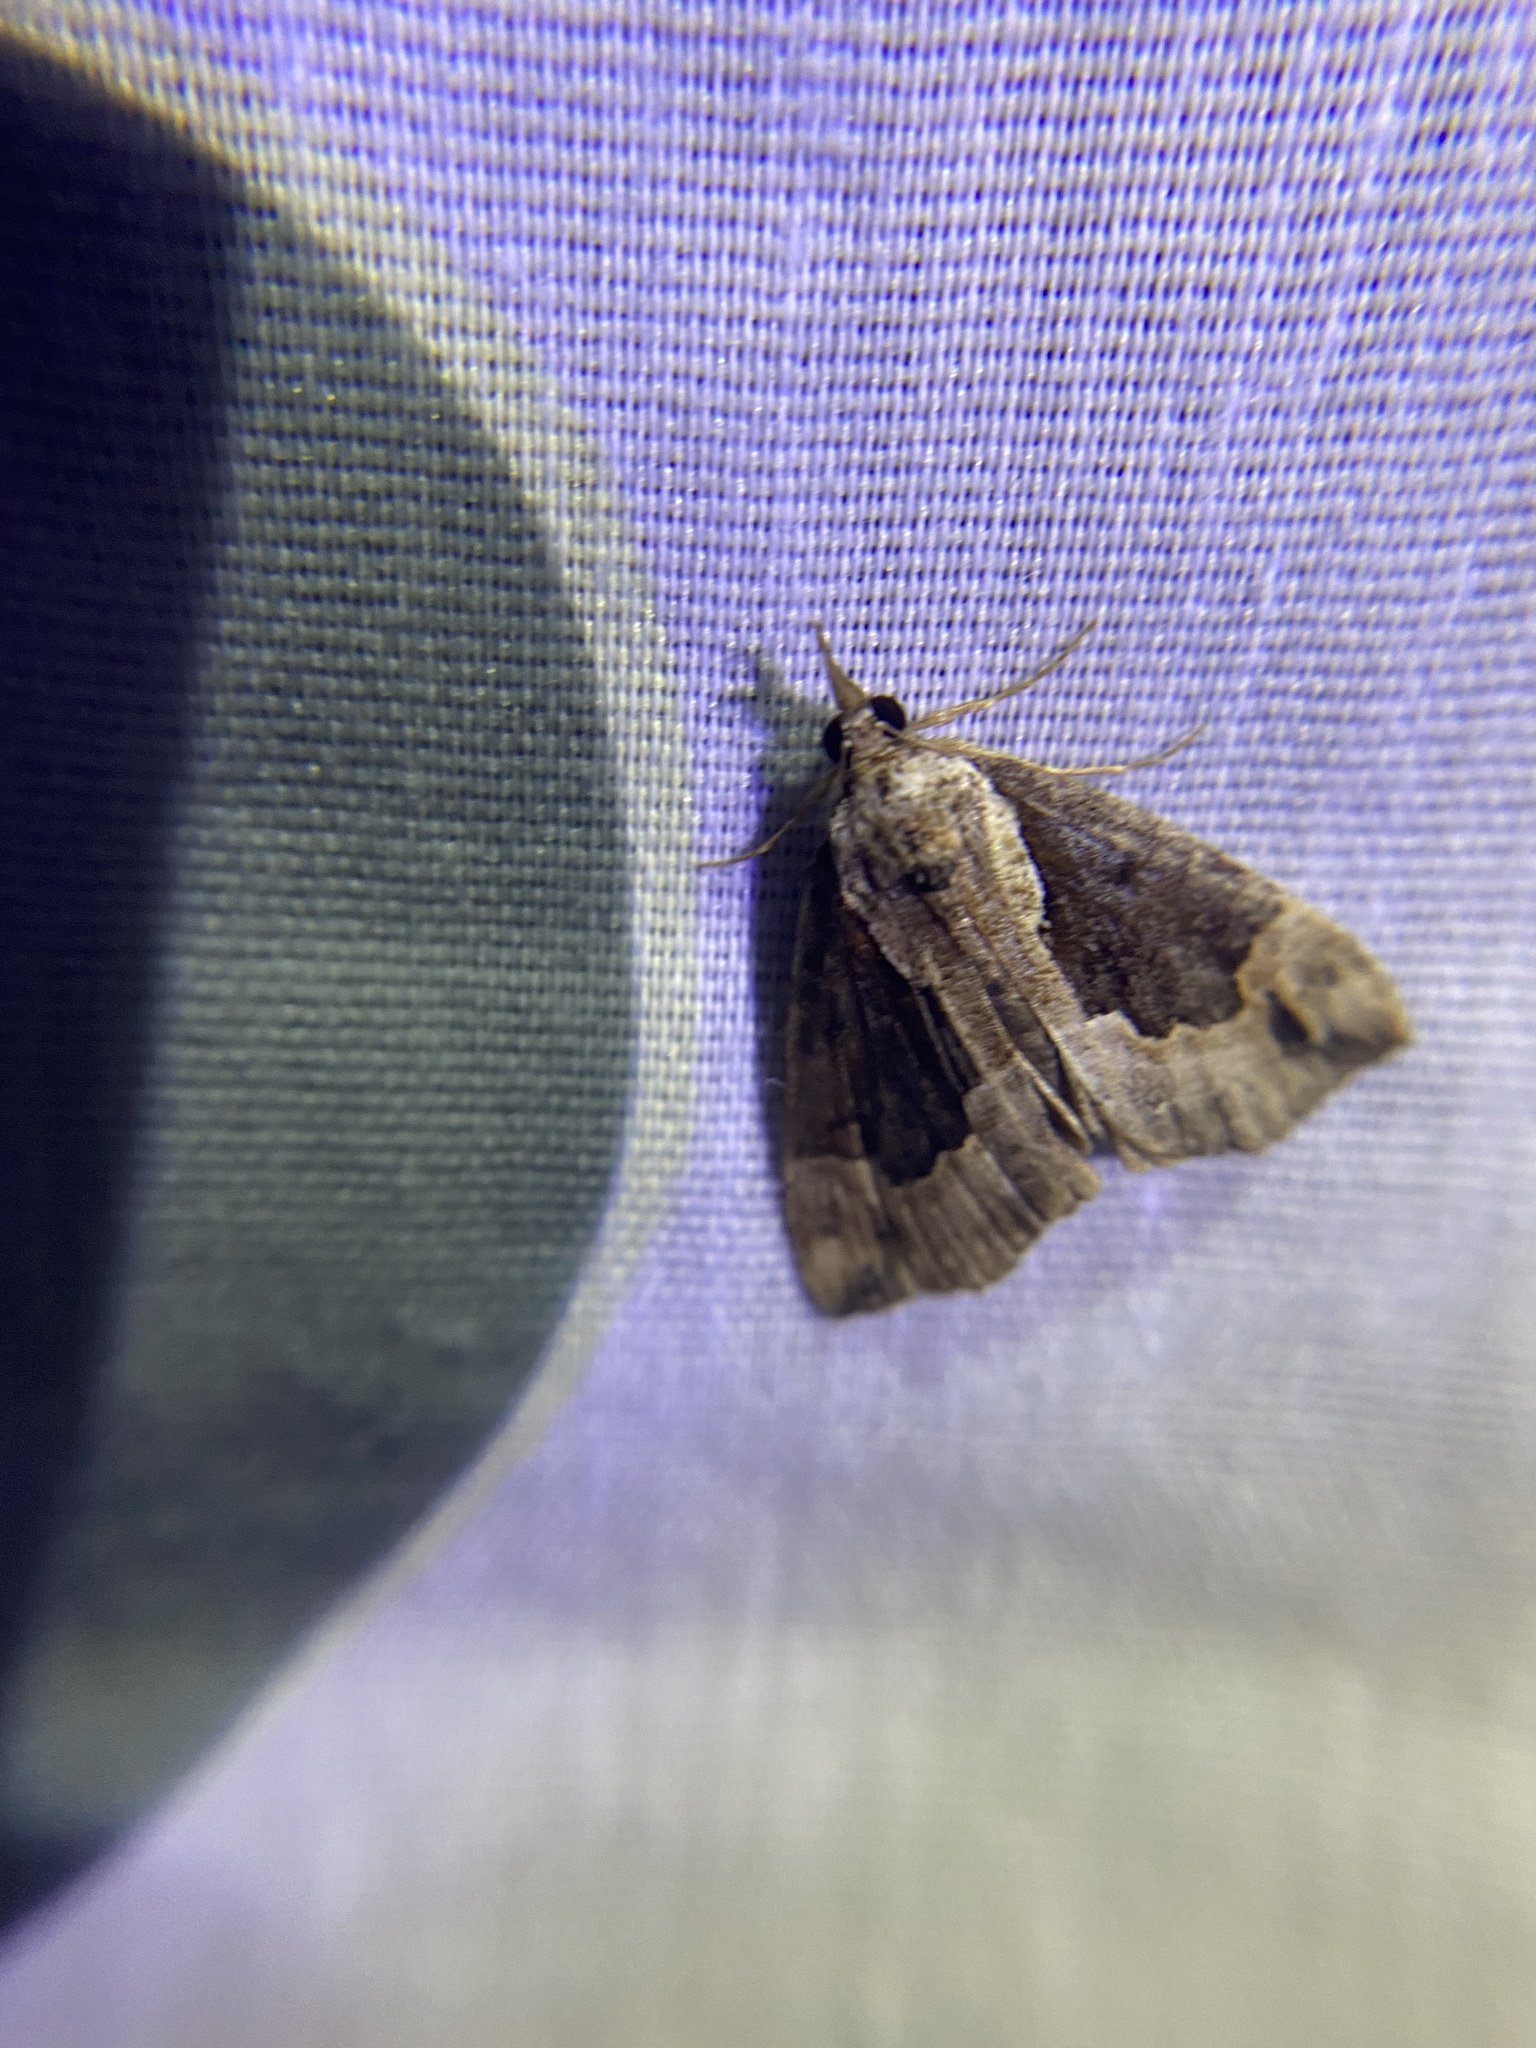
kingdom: Animalia
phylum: Arthropoda
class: Insecta
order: Lepidoptera
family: Erebidae
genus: Hypena
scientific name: Hypena baltimoralis
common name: Baltimore snout
